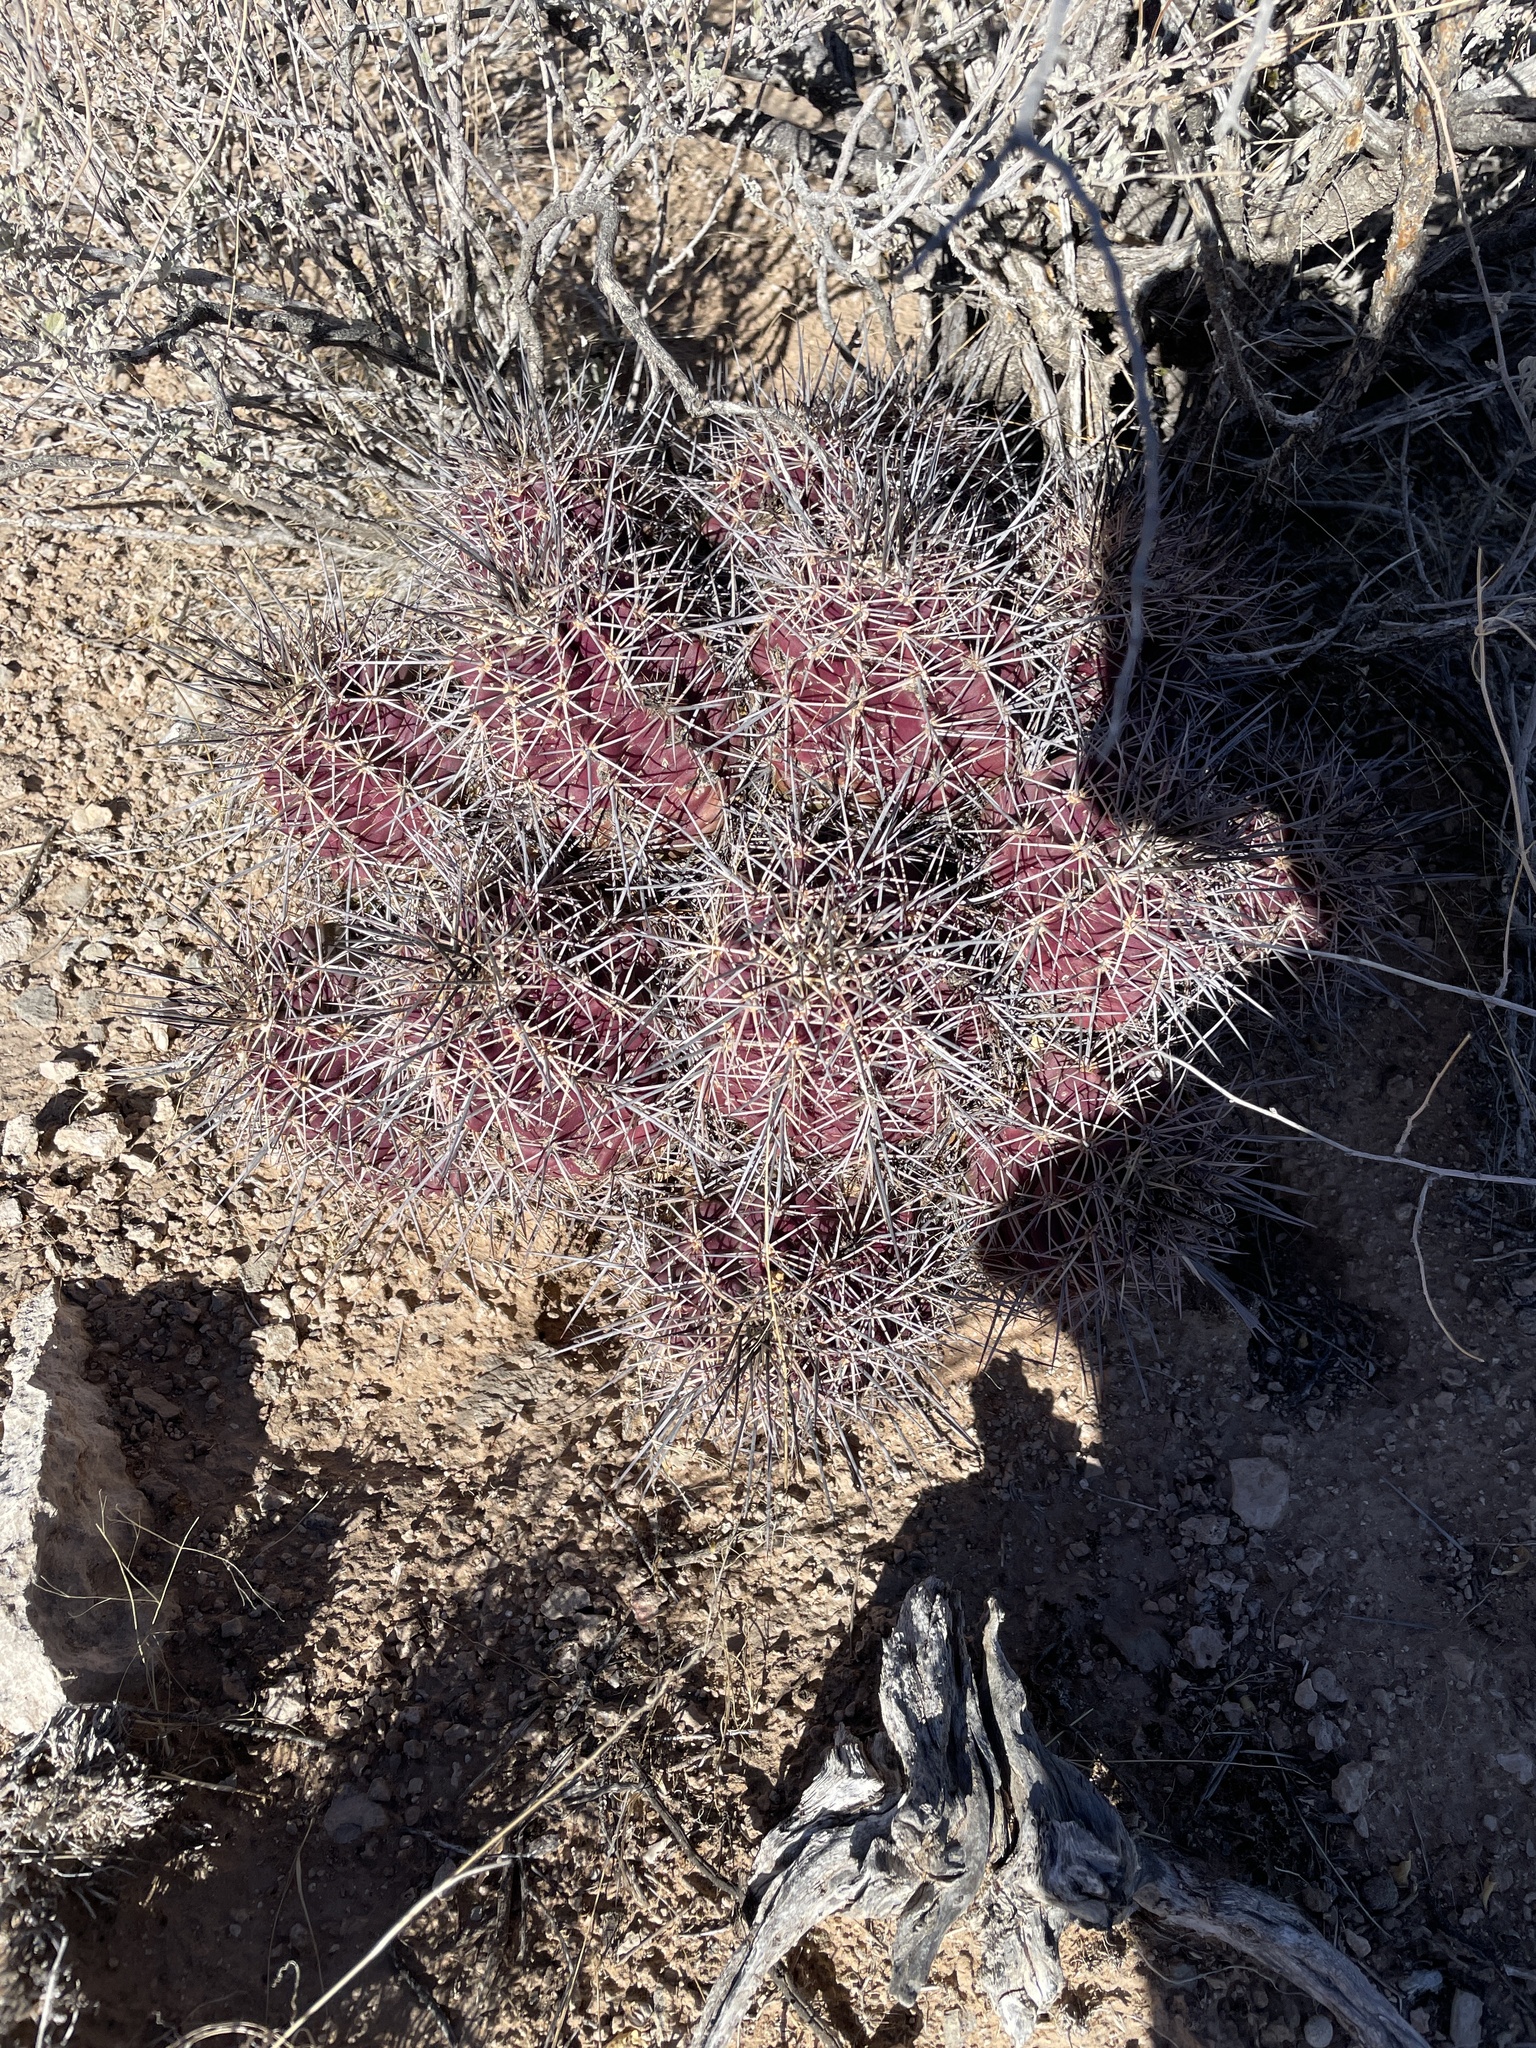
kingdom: Plantae
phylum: Tracheophyta
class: Magnoliopsida
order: Caryophyllales
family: Cactaceae
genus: Echinocereus
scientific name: Echinocereus coccineus
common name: Scarlet hedgehog cactus
